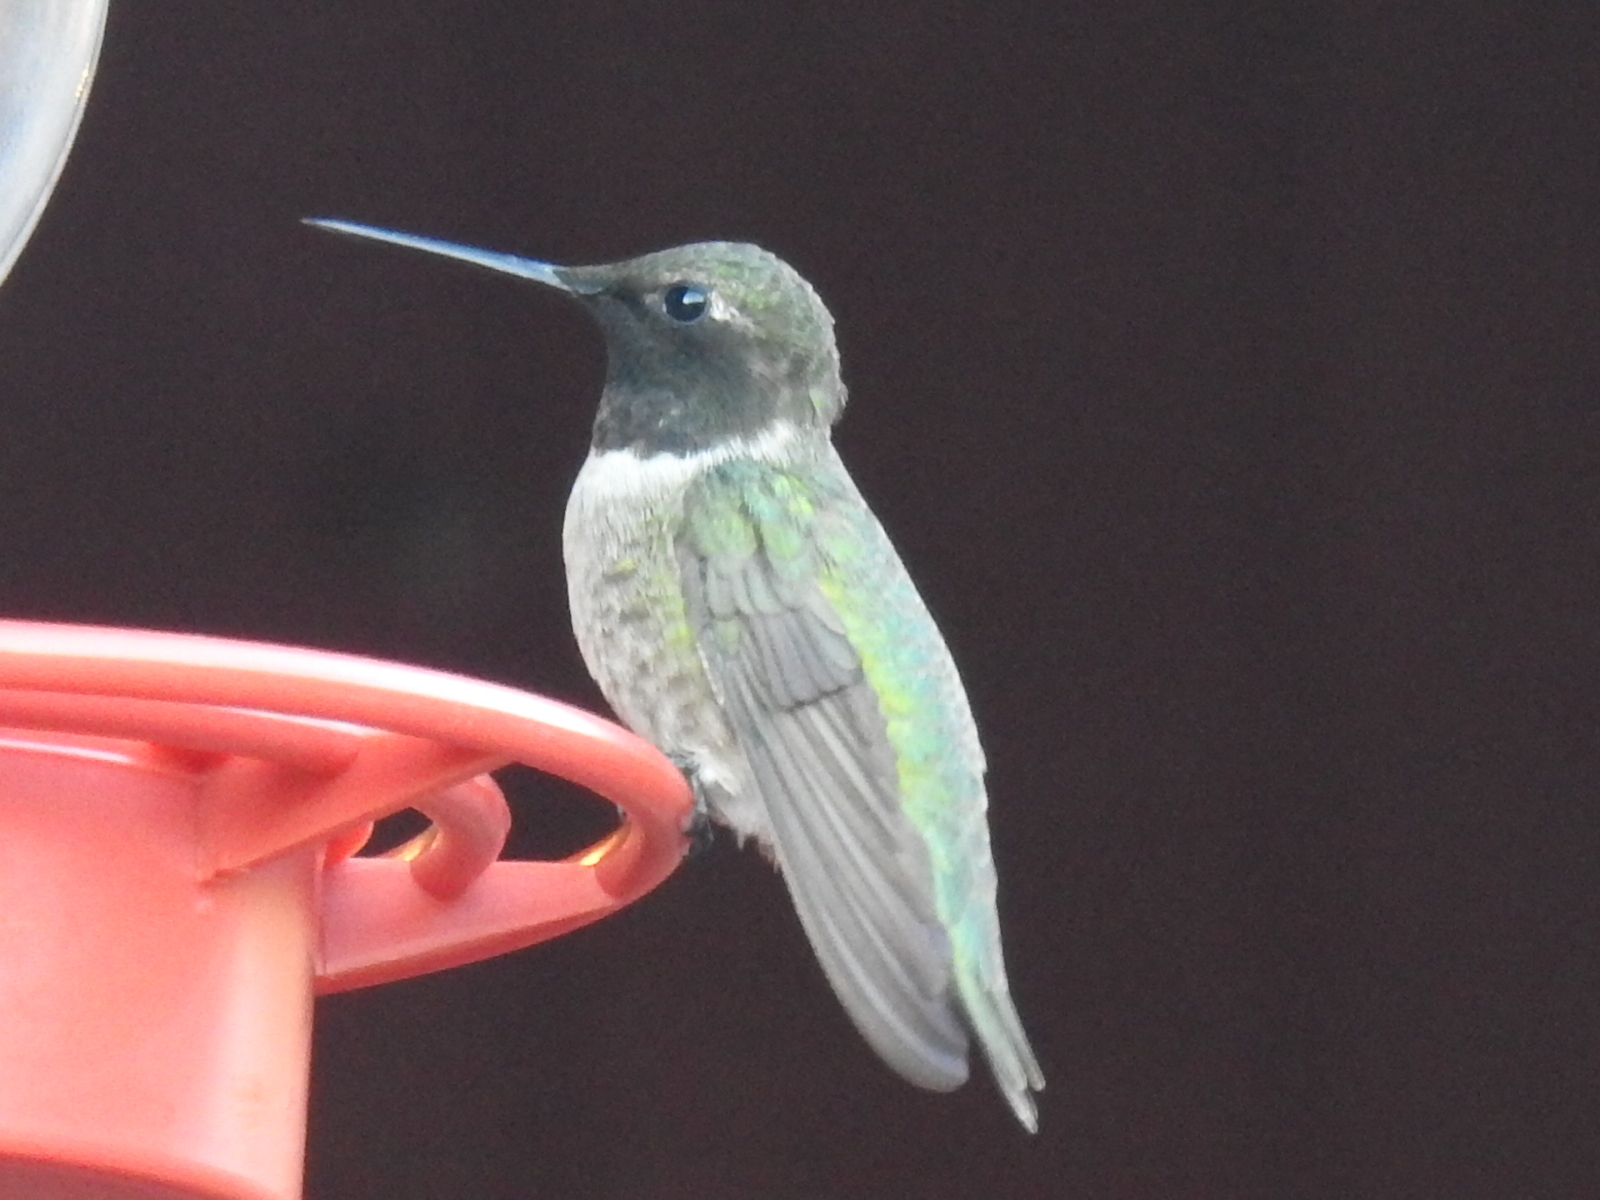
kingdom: Animalia
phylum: Chordata
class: Aves
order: Apodiformes
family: Trochilidae
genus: Archilochus
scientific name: Archilochus alexandri
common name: Black-chinned hummingbird
